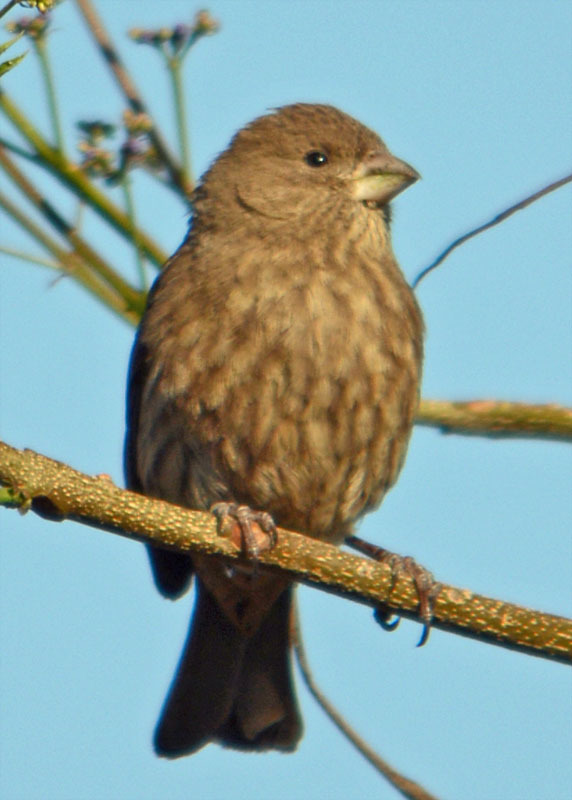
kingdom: Animalia
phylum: Chordata
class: Aves
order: Passeriformes
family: Fringillidae
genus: Haemorhous
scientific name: Haemorhous mexicanus
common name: House finch
